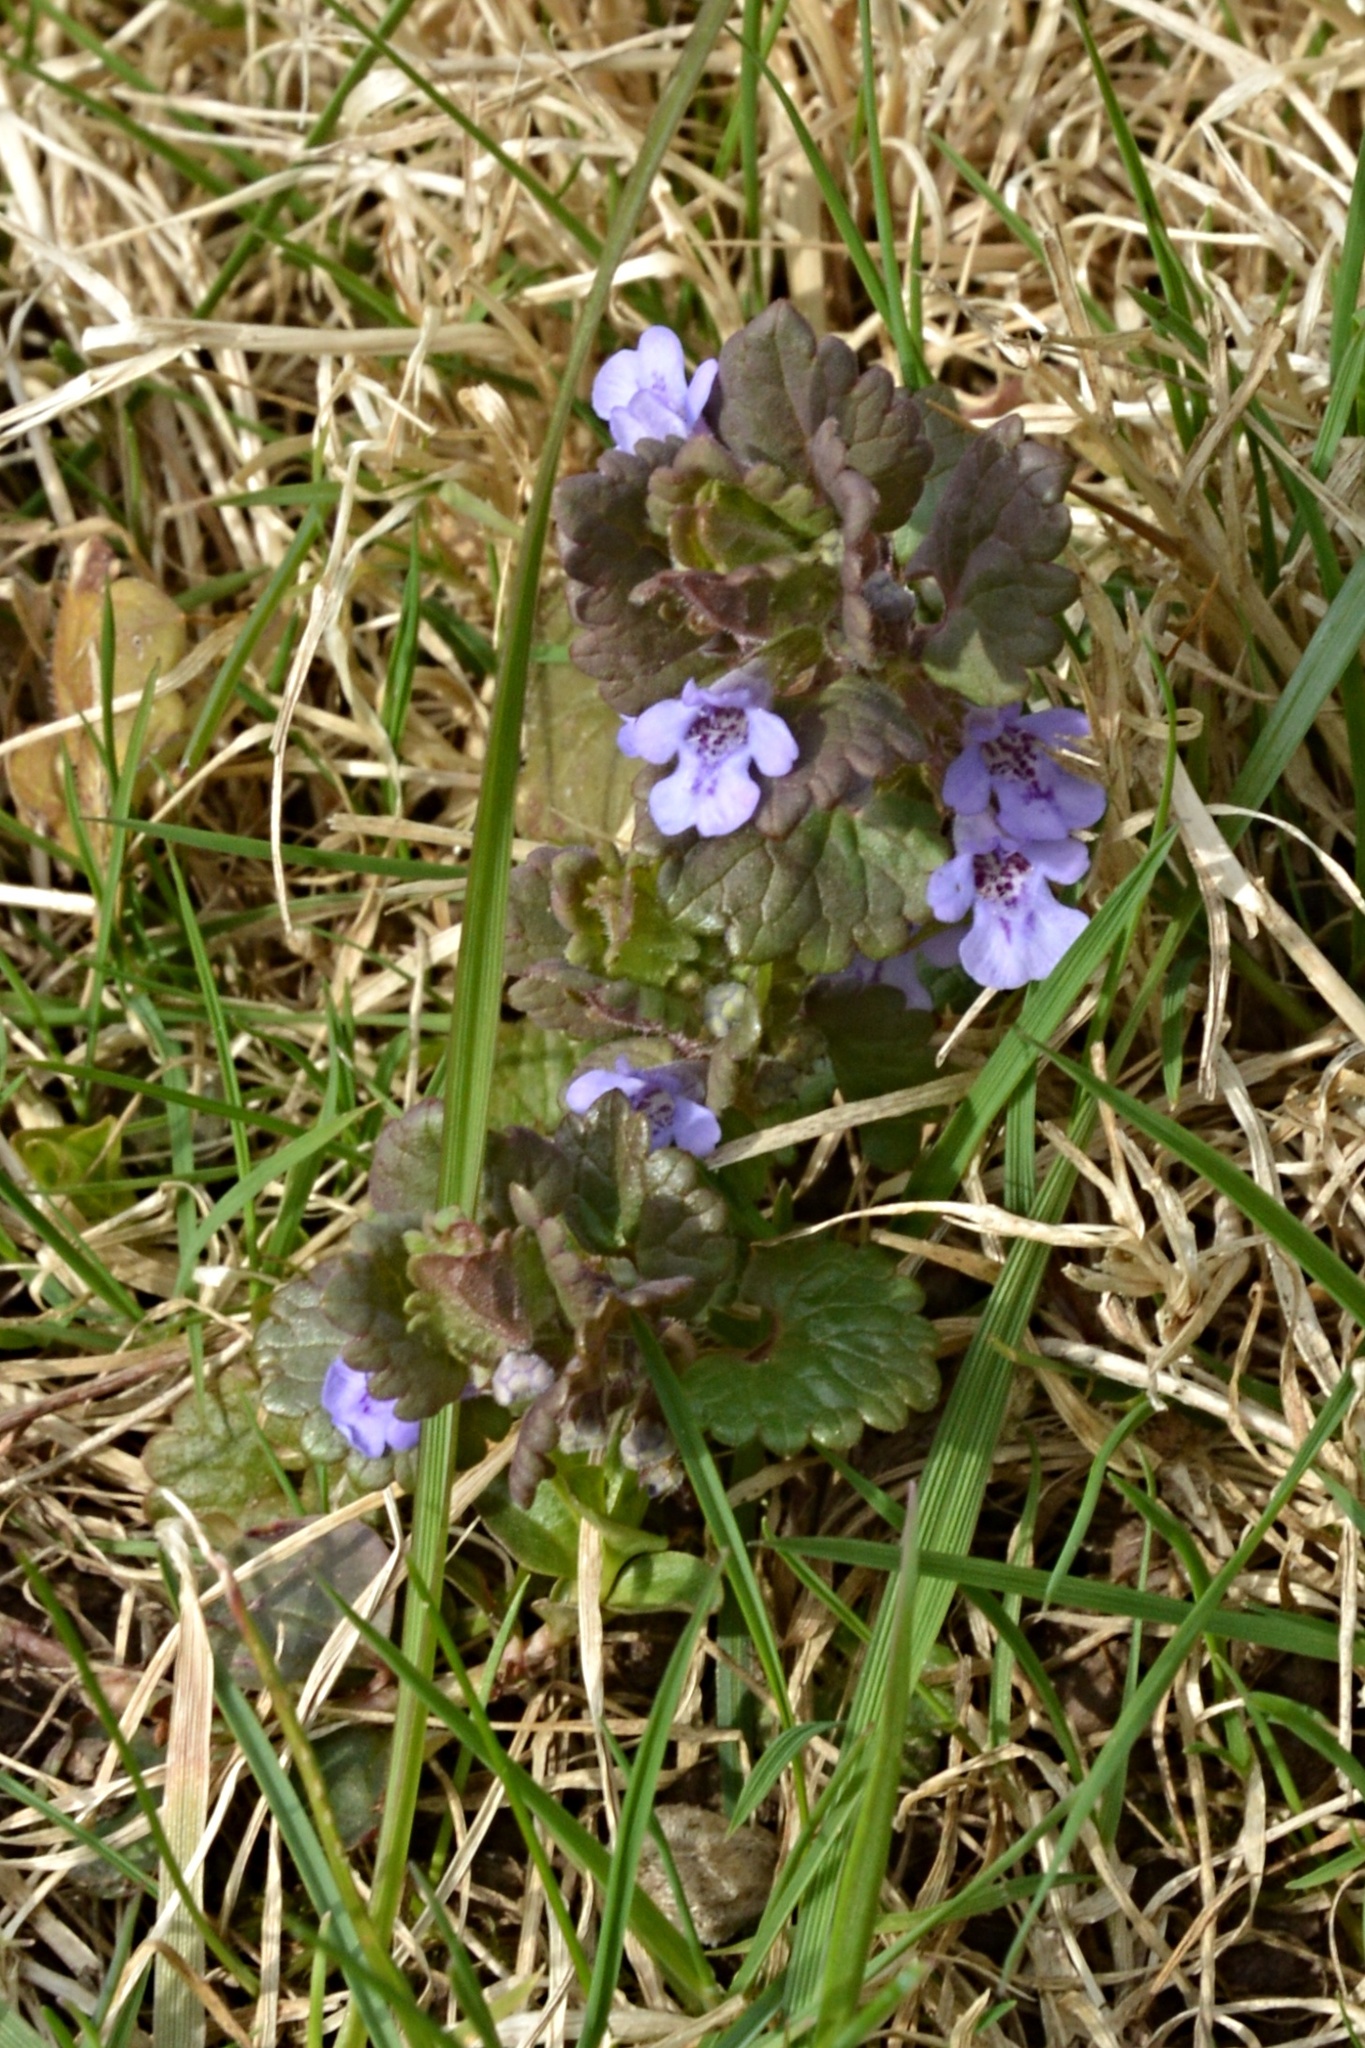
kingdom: Plantae
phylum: Tracheophyta
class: Magnoliopsida
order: Lamiales
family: Lamiaceae
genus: Glechoma
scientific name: Glechoma hederacea
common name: Ground ivy
